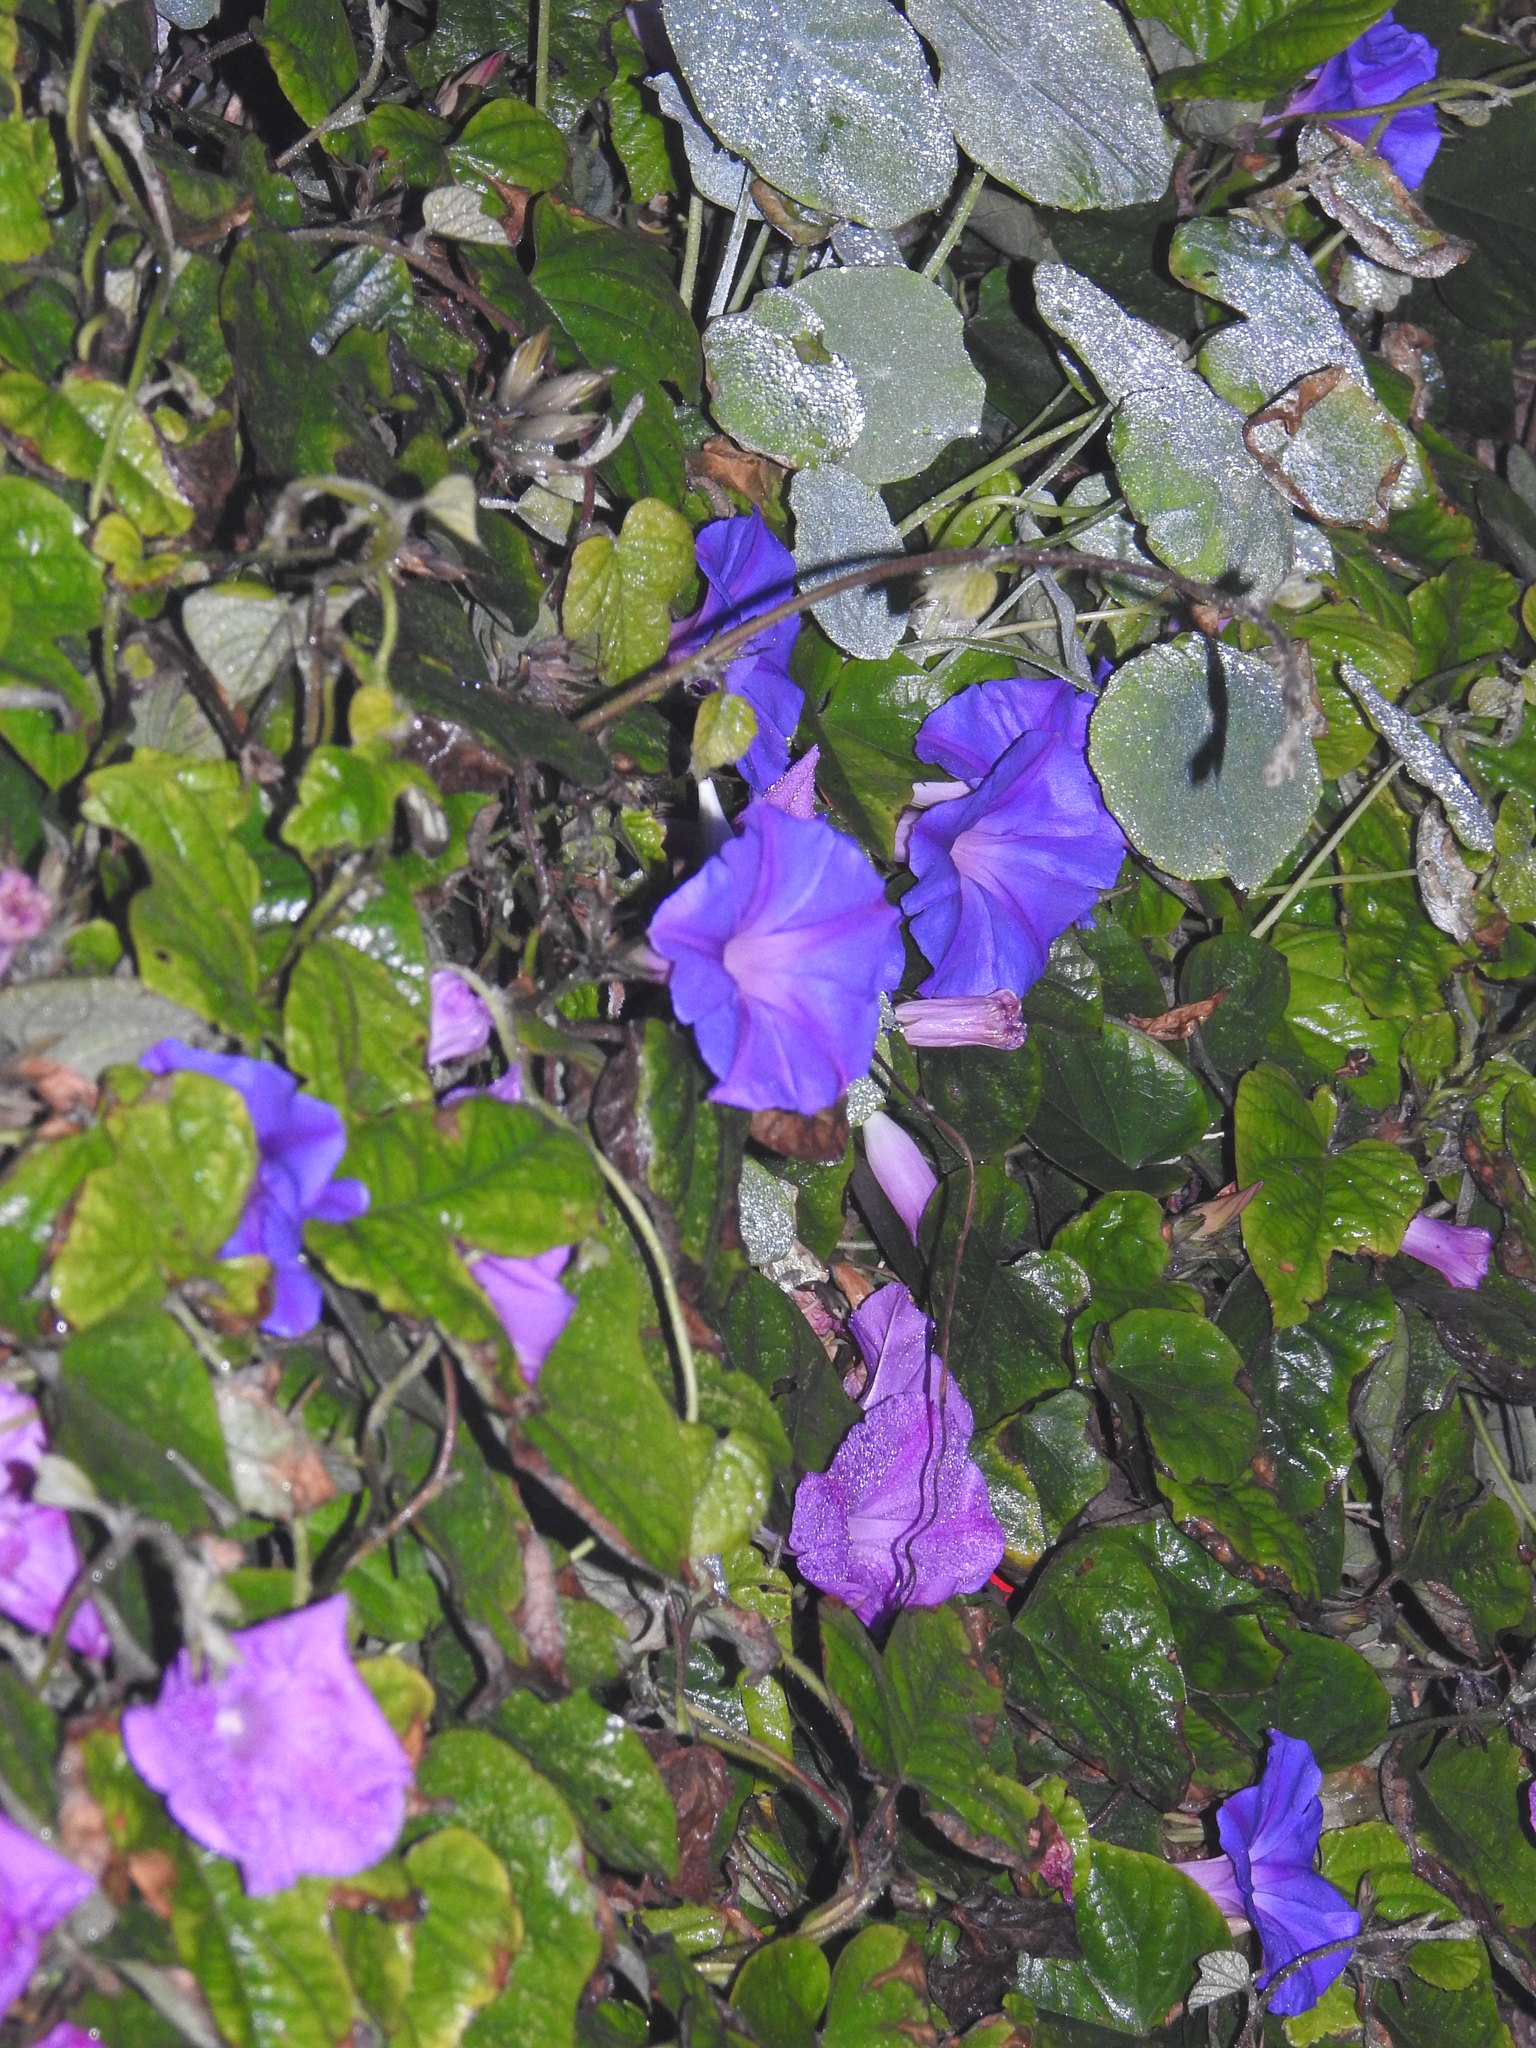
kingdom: Plantae
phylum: Tracheophyta
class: Magnoliopsida
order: Solanales
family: Convolvulaceae
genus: Ipomoea
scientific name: Ipomoea indica
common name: Blue dawnflower
